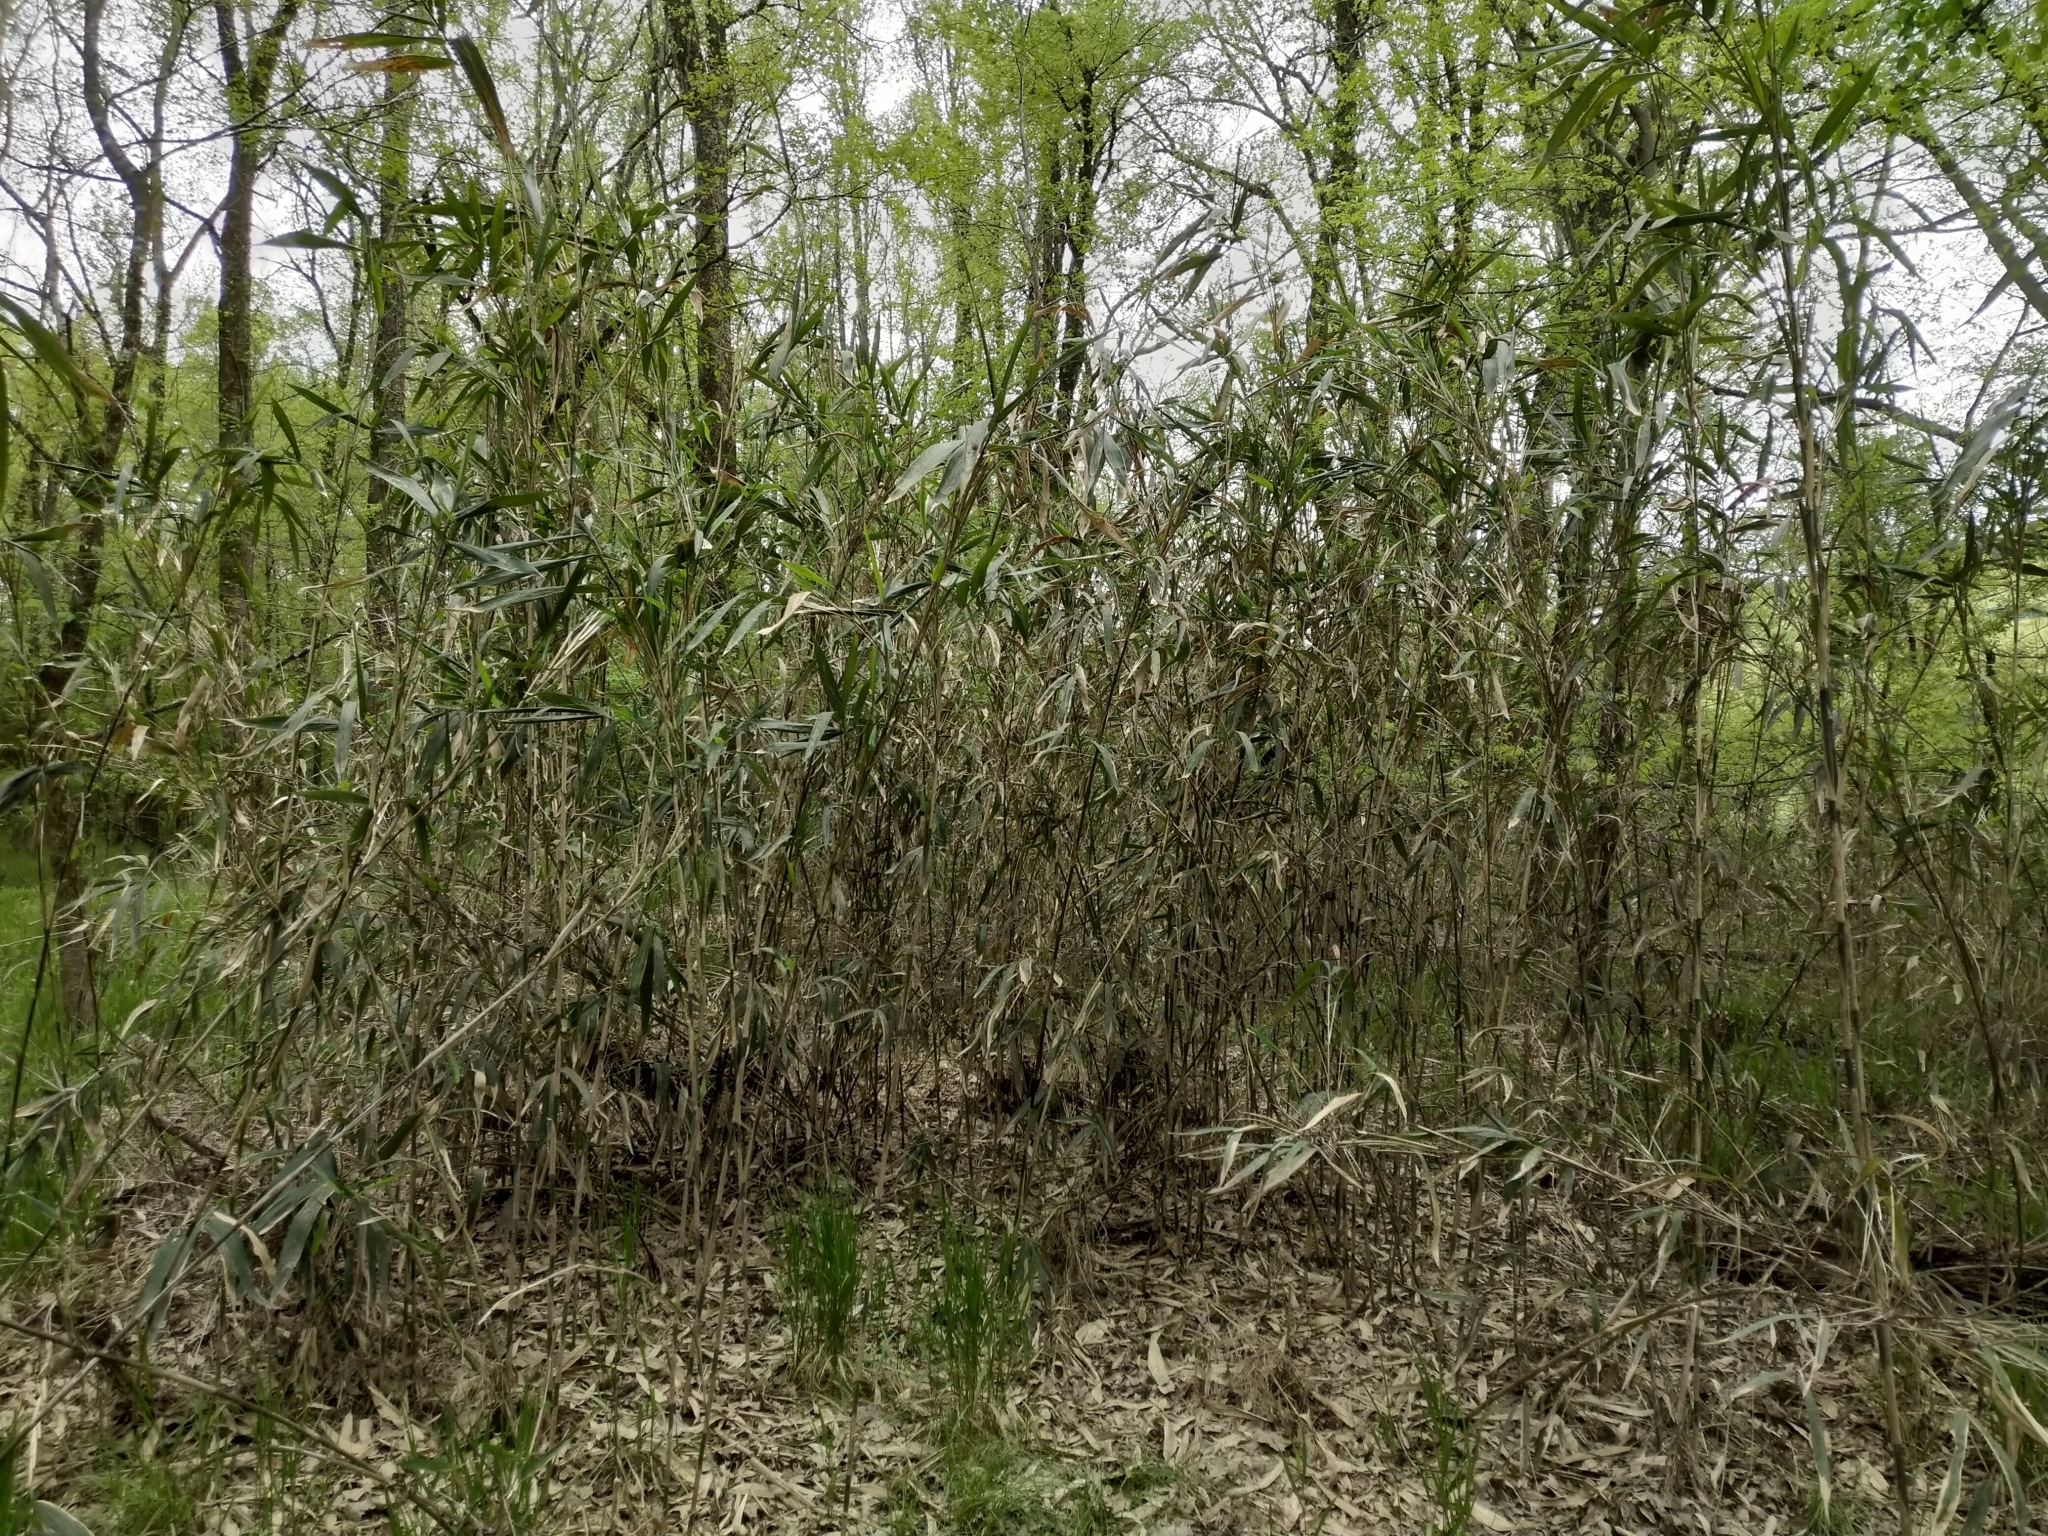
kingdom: Plantae
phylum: Tracheophyta
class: Liliopsida
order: Poales
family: Poaceae
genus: Arundinaria
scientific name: Arundinaria gigantea
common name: Giant cane
